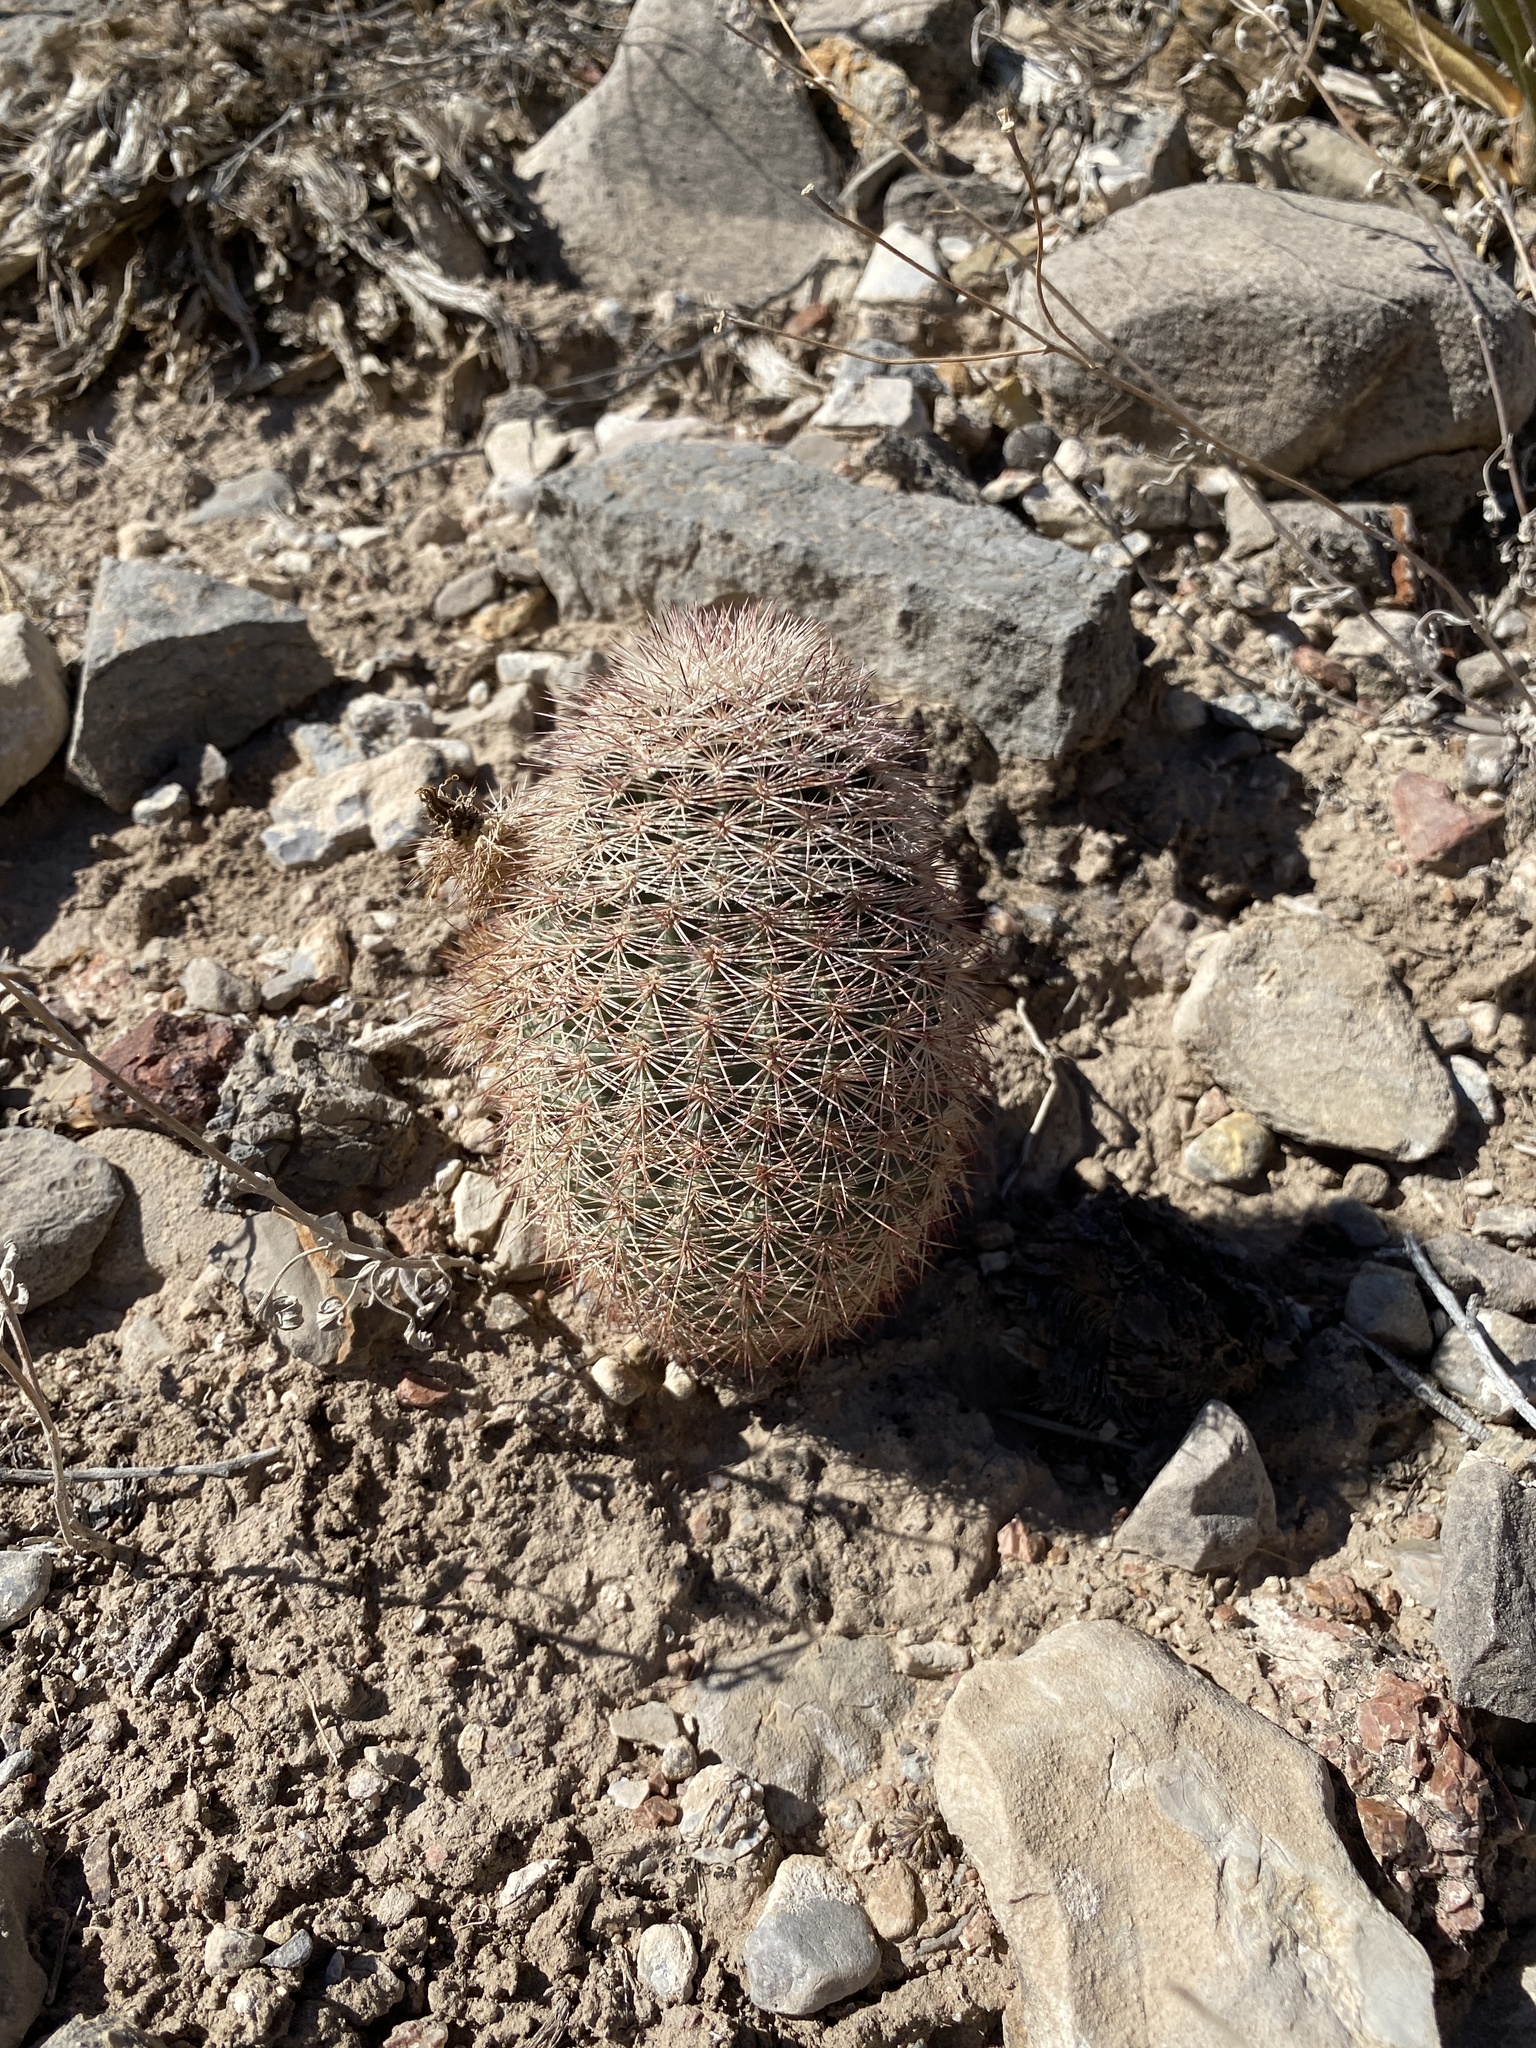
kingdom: Plantae
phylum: Tracheophyta
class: Magnoliopsida
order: Caryophyllales
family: Cactaceae
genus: Echinocereus
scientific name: Echinocereus dasyacanthus
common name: Spiny hedgehog cactus
